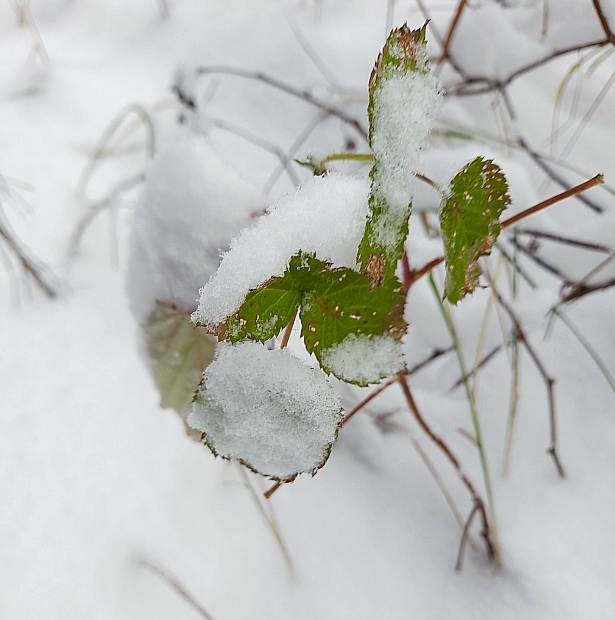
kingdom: Plantae
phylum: Tracheophyta
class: Magnoliopsida
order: Rosales
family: Rosaceae
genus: Rubus
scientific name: Rubus idaeus
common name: Raspberry
